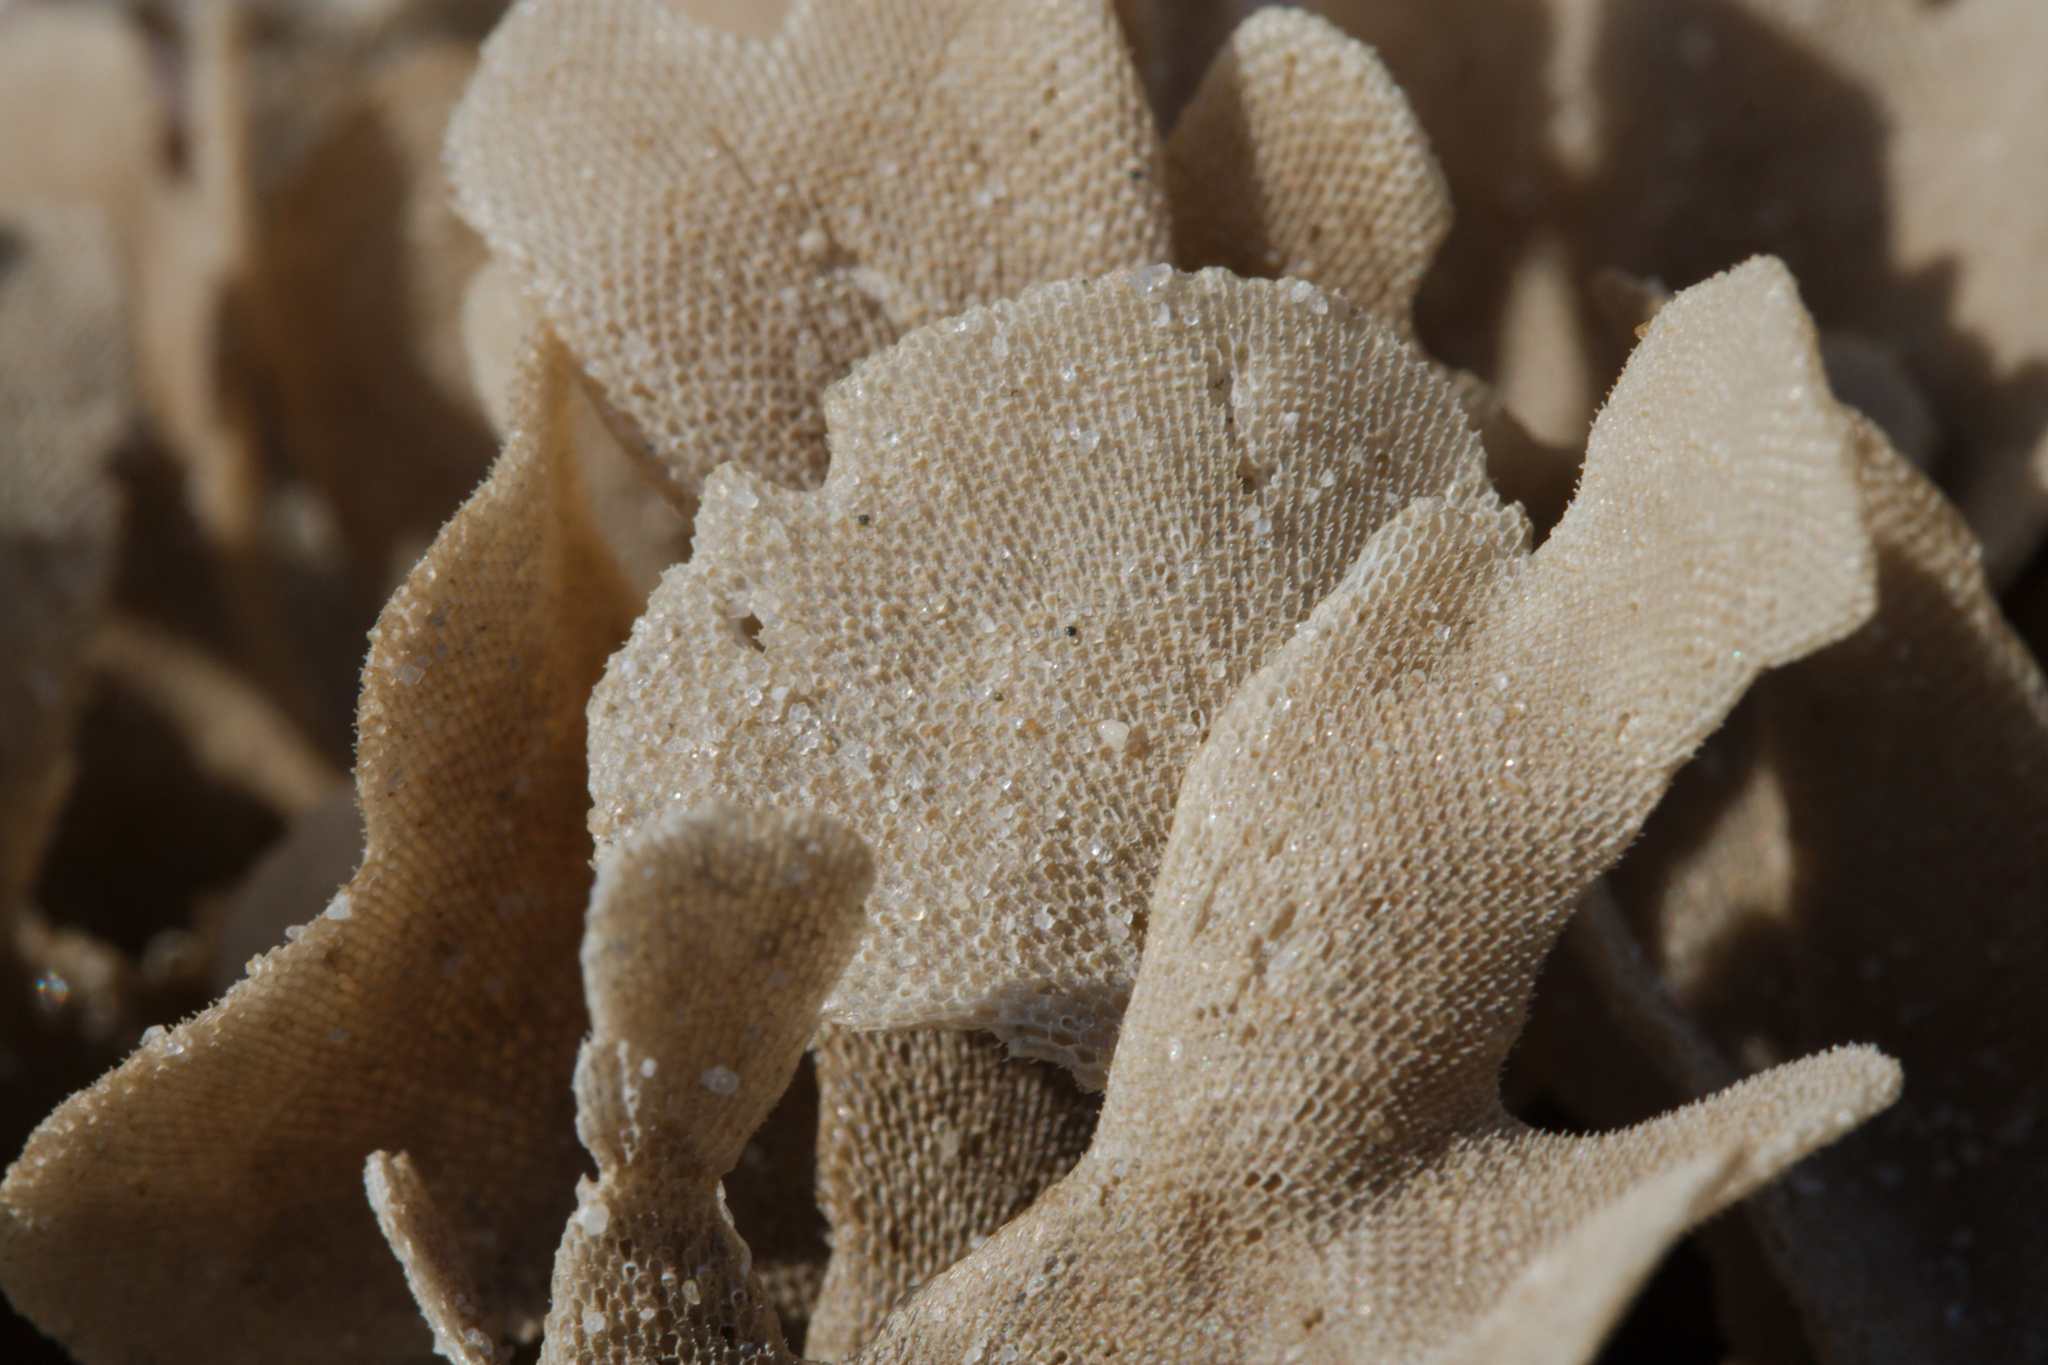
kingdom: Animalia
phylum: Bryozoa
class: Gymnolaemata
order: Cheilostomatida
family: Flustridae
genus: Flustra
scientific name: Flustra foliacea
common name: Hornwrack
